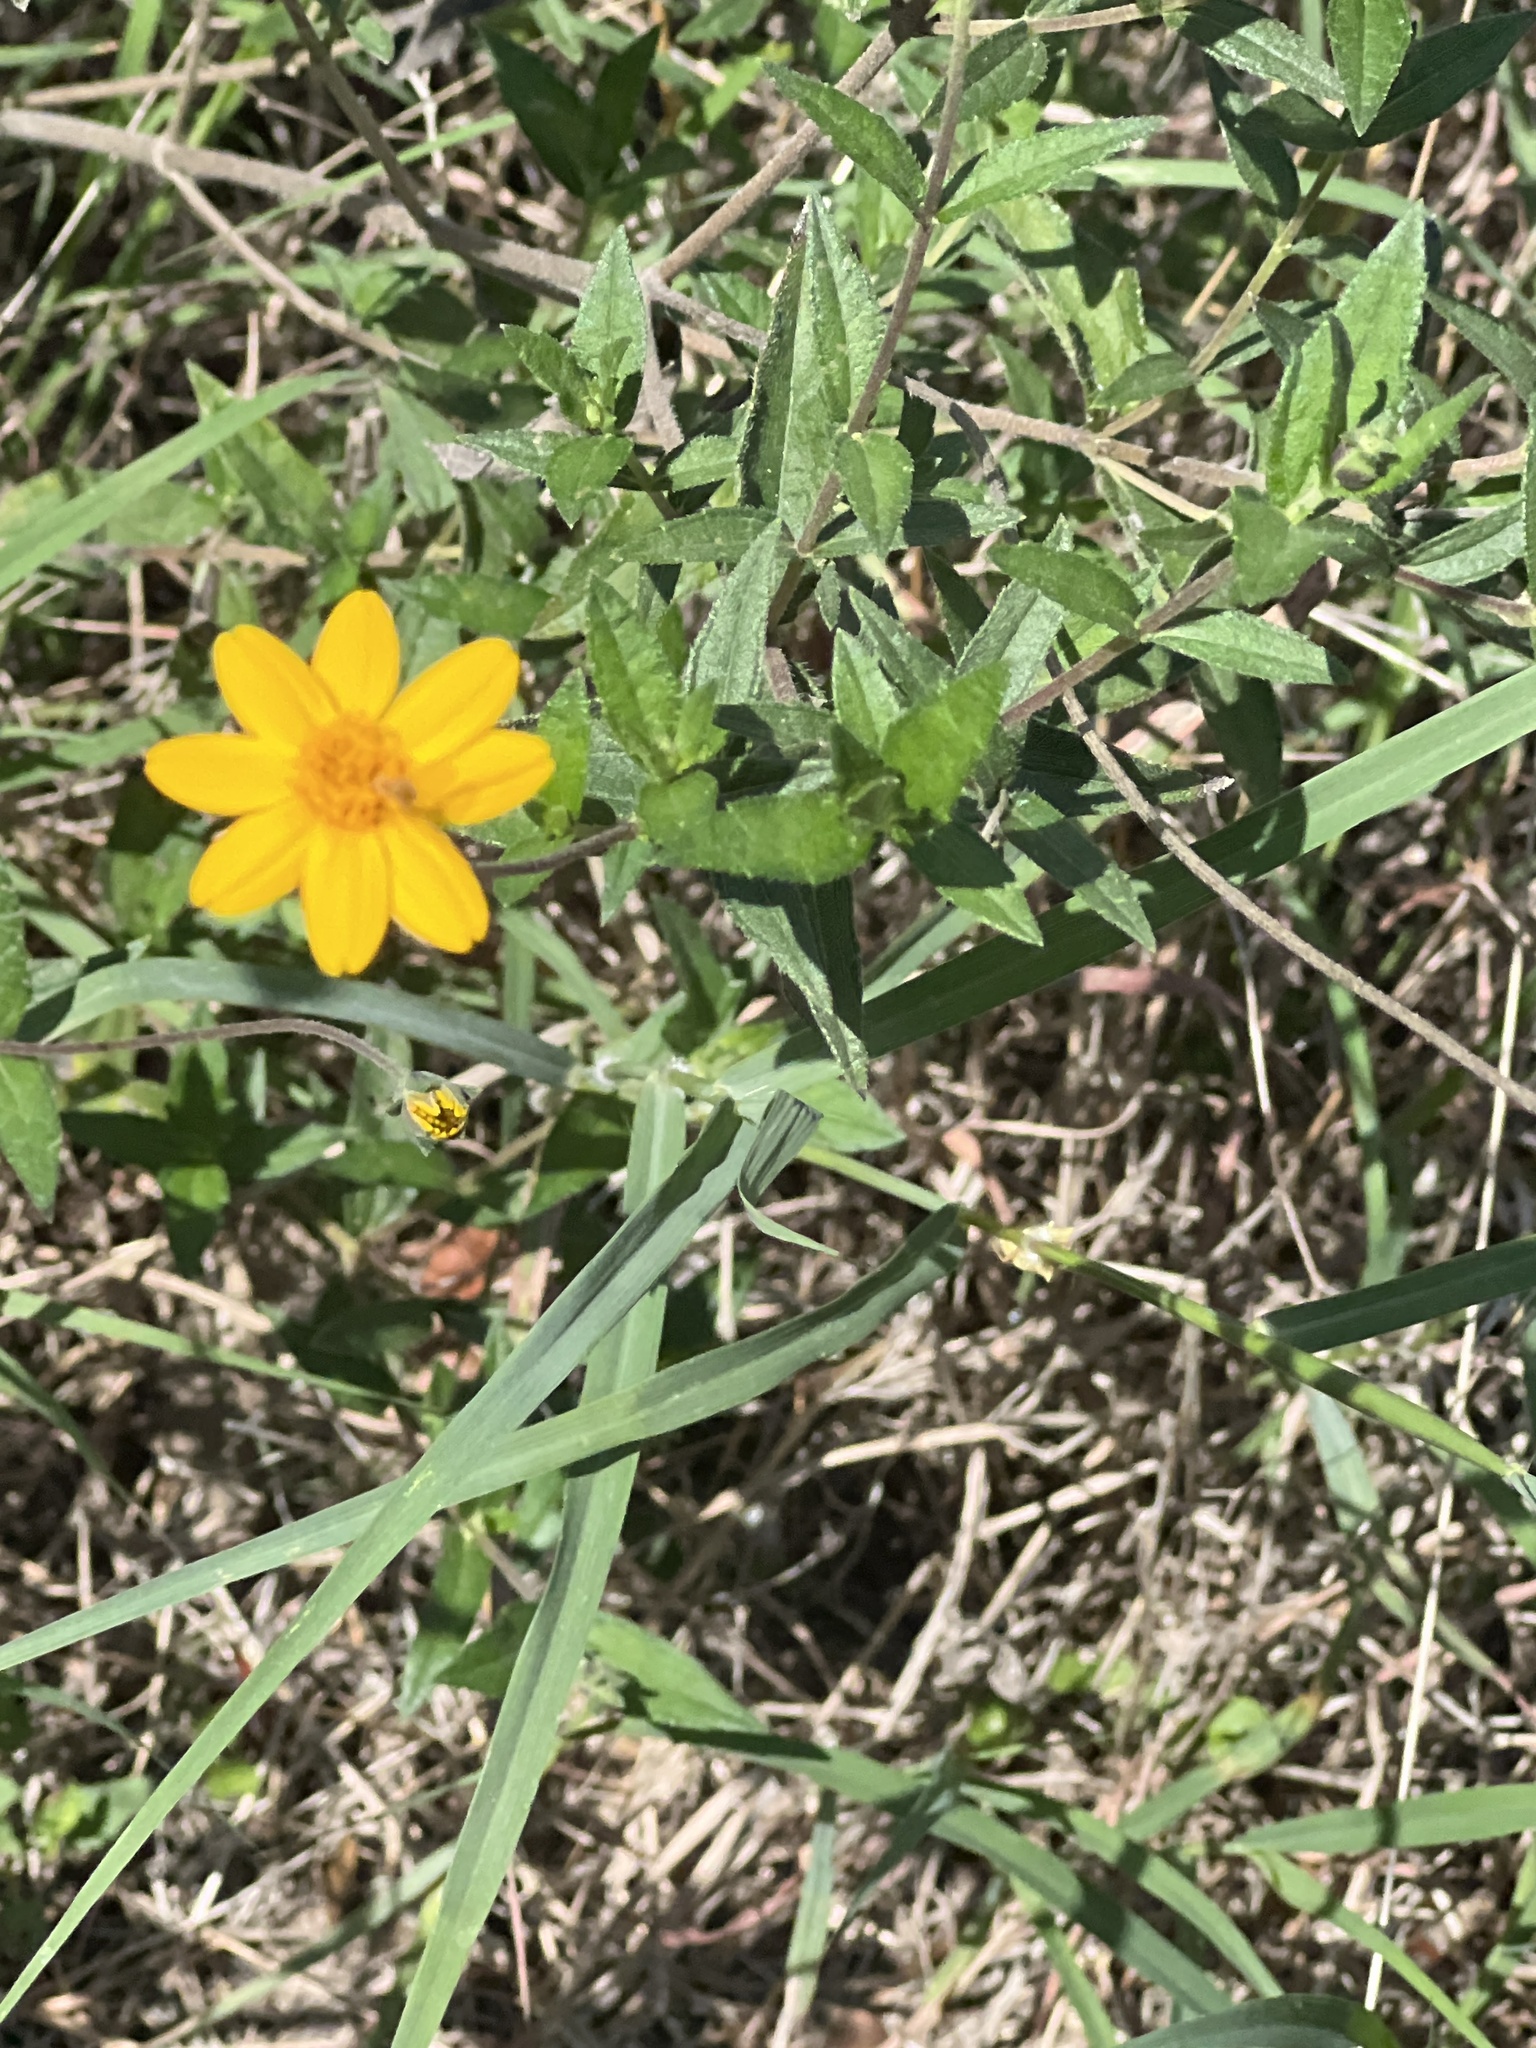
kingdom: Plantae
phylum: Tracheophyta
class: Magnoliopsida
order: Asterales
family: Asteraceae
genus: Wedelia
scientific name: Wedelia acapulcensis
